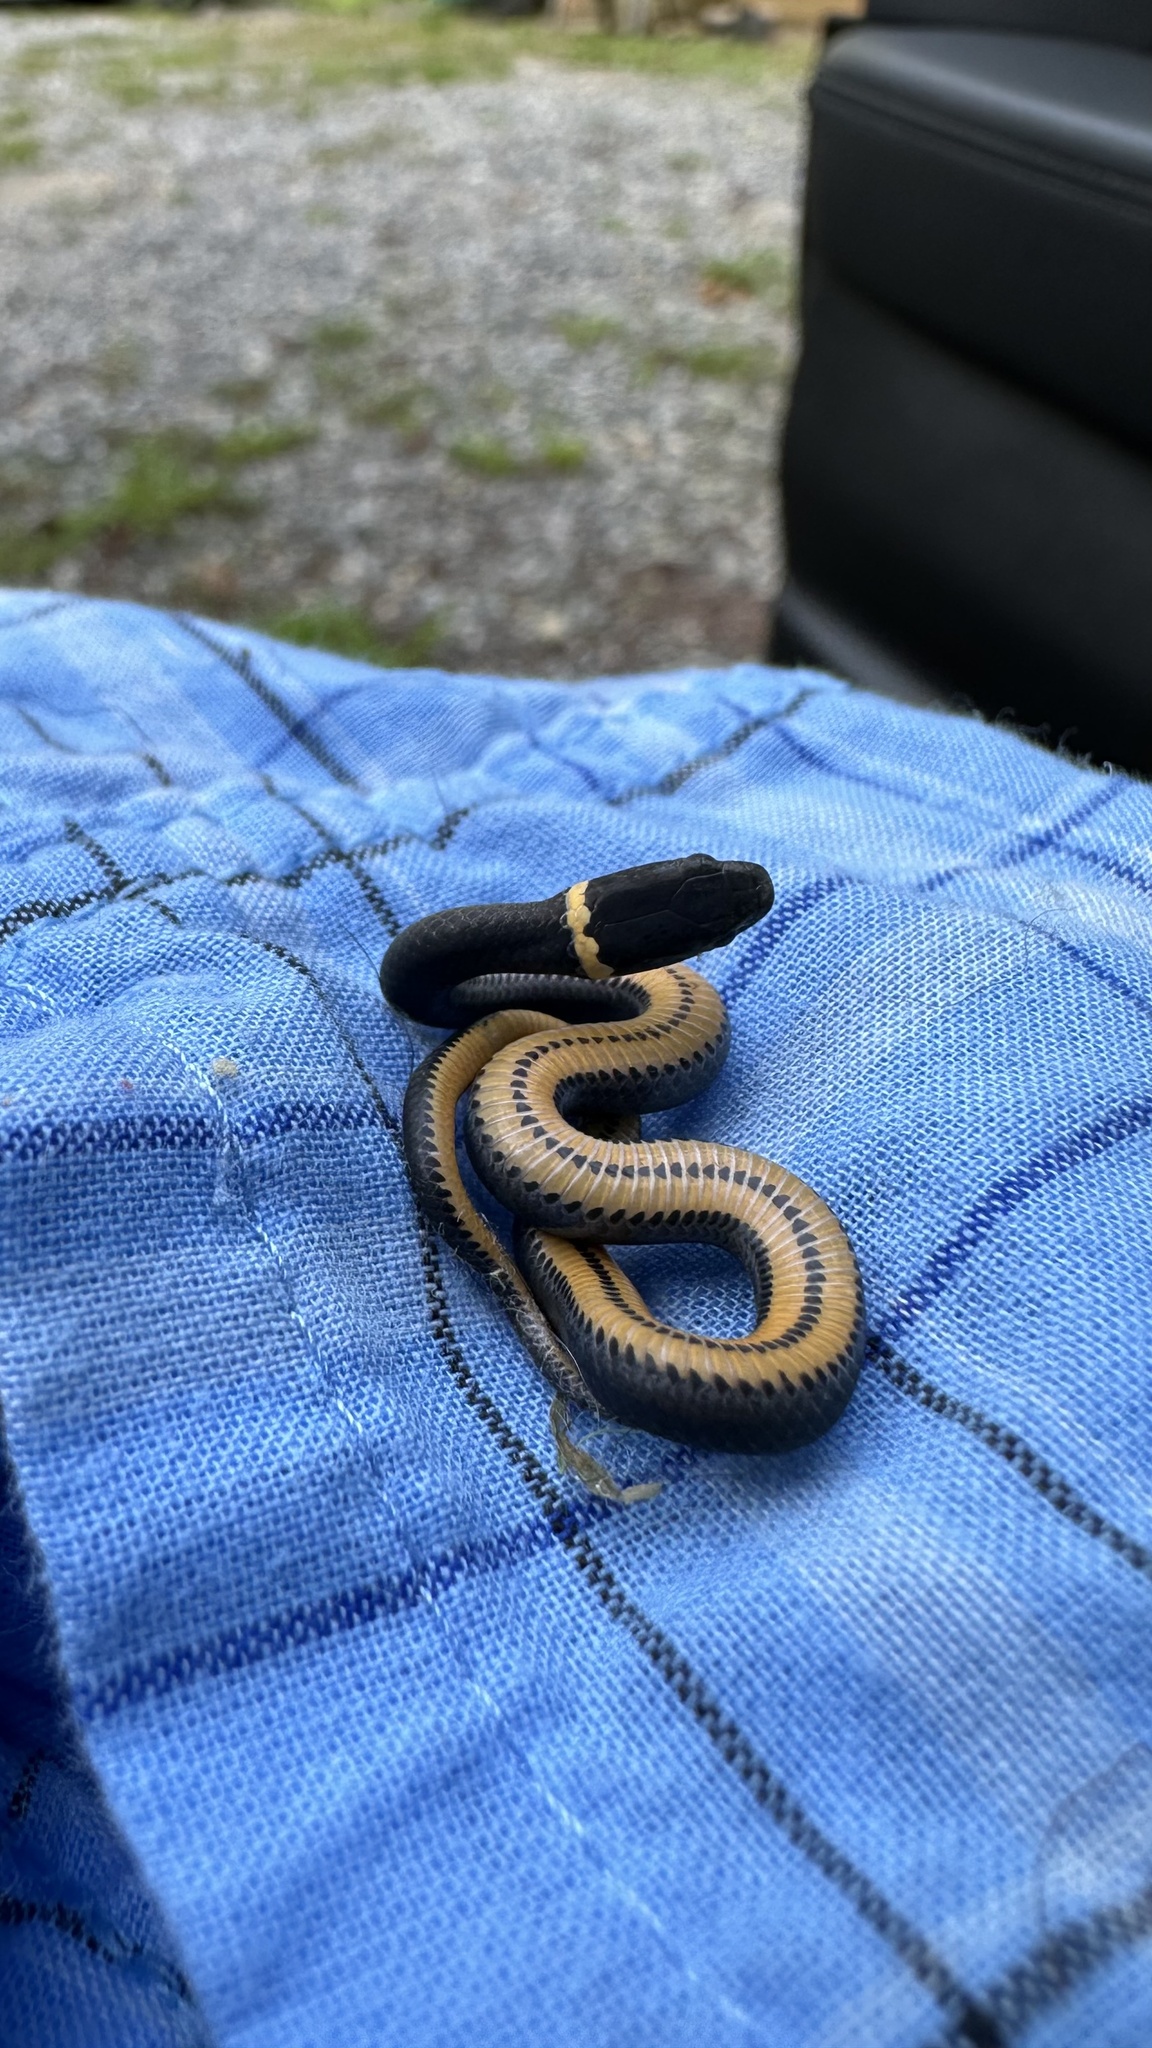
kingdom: Animalia
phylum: Chordata
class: Squamata
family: Colubridae
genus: Diadophis
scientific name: Diadophis punctatus
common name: Ringneck snake
